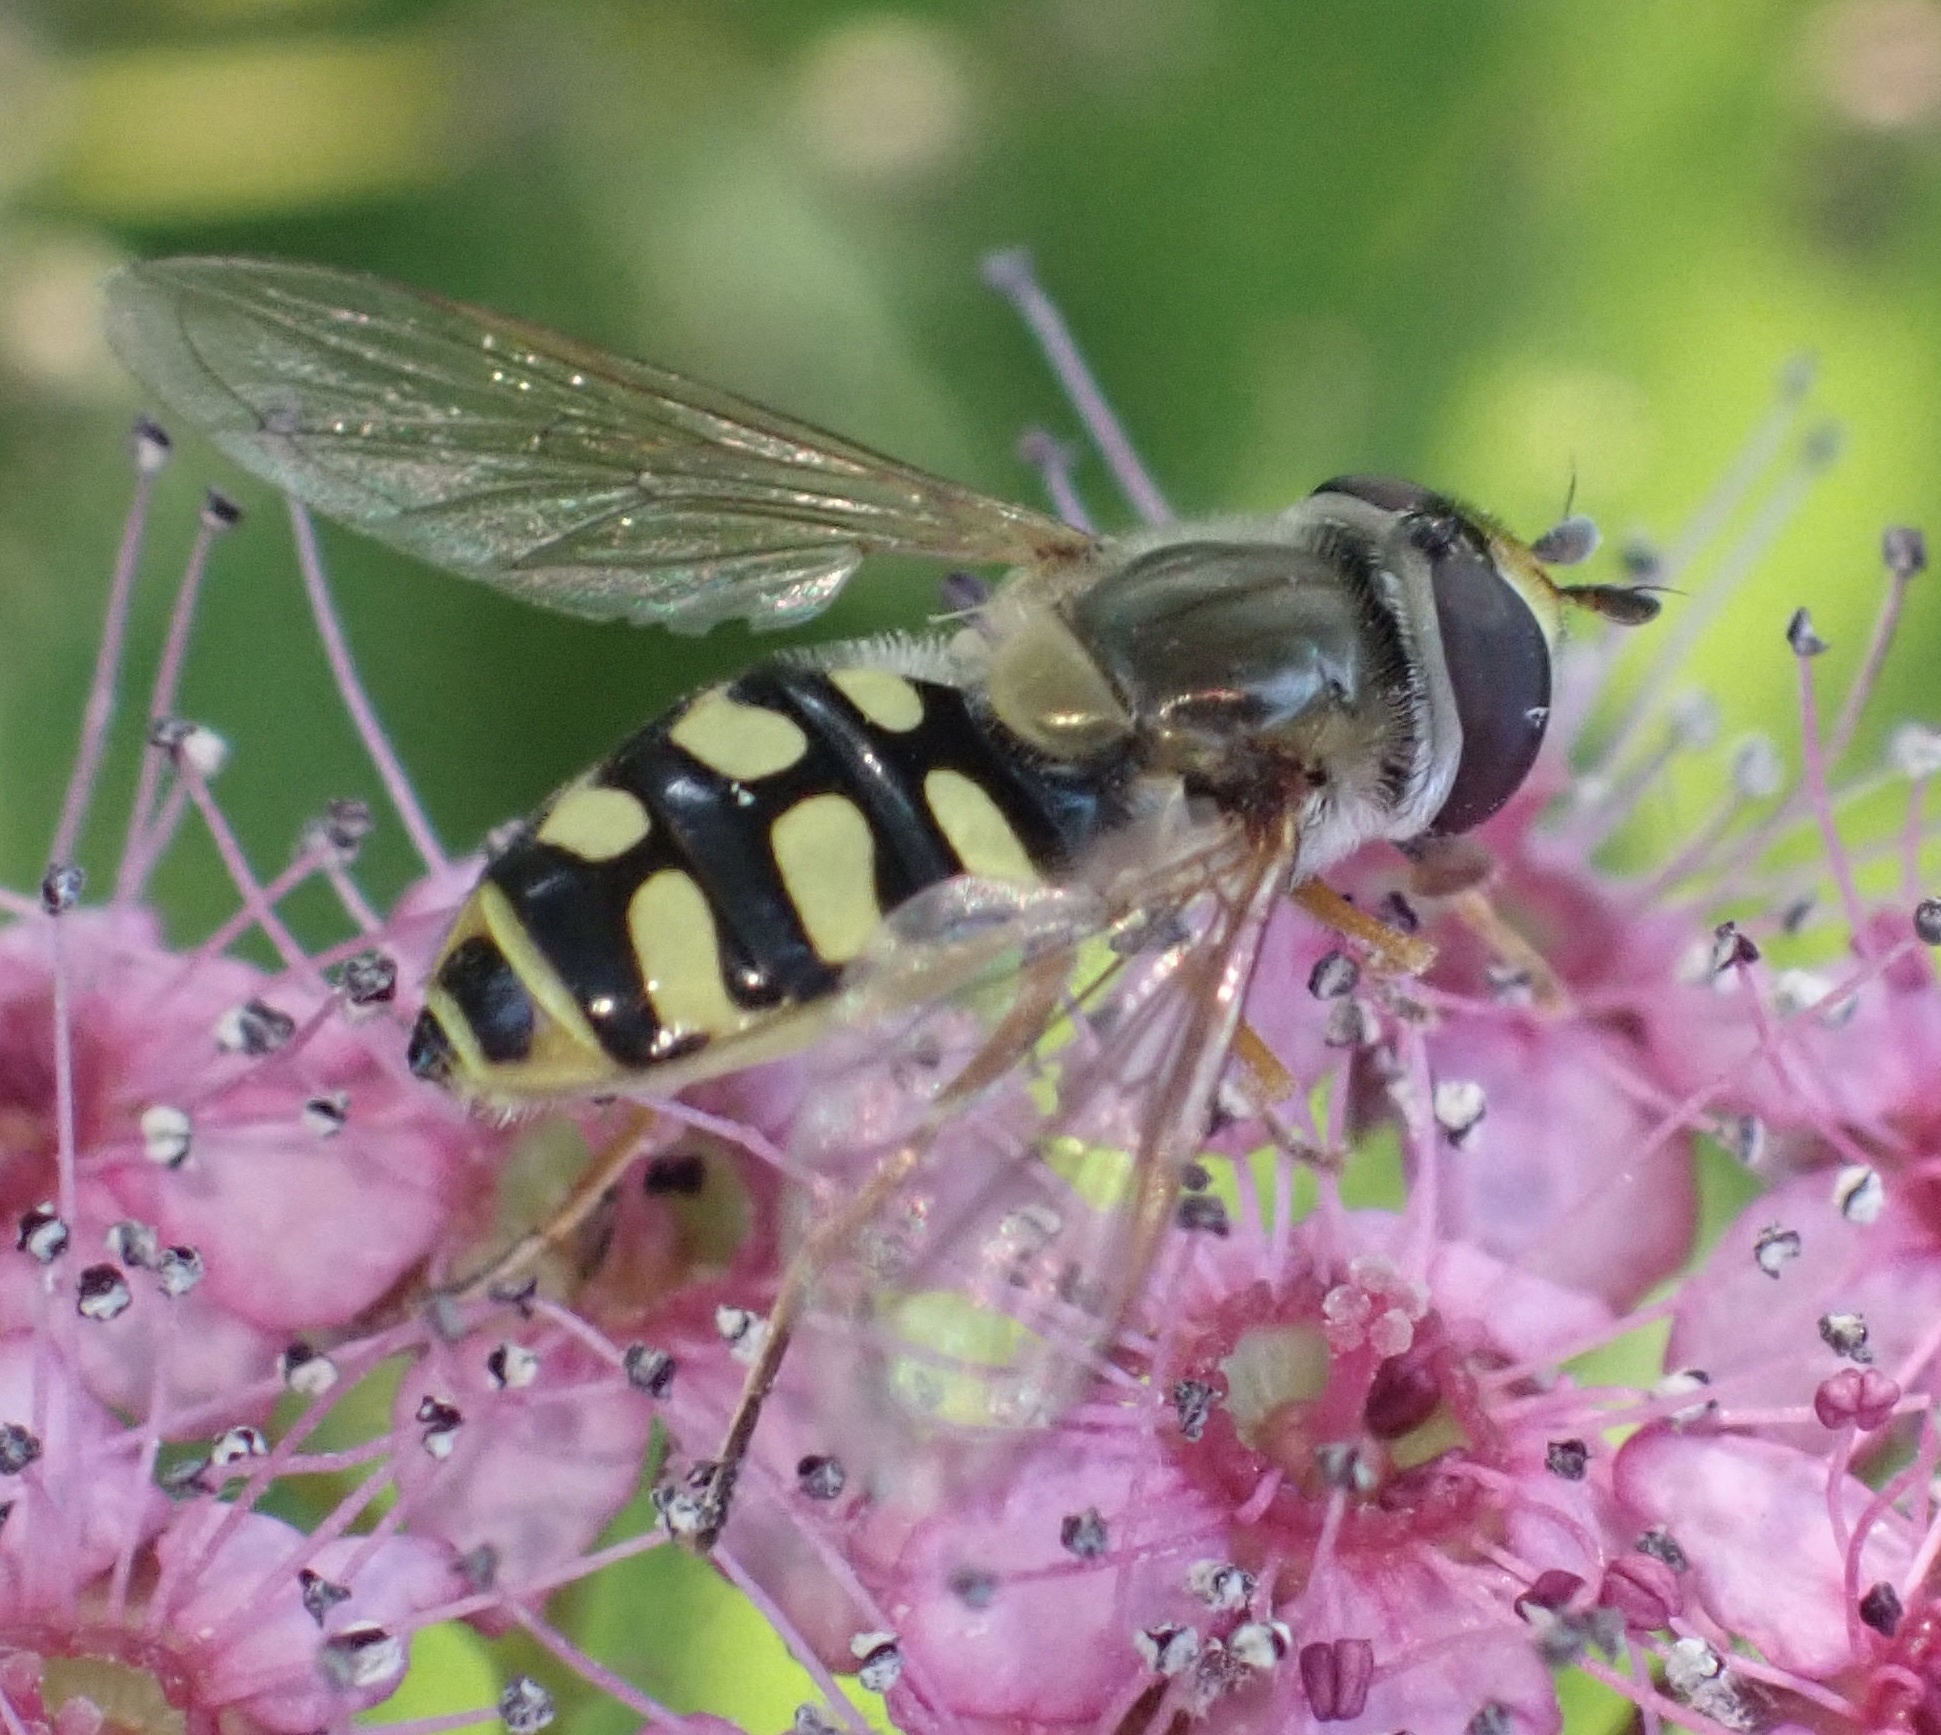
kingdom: Animalia
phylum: Arthropoda
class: Insecta
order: Diptera
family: Syrphidae
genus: Eupeodes
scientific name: Eupeodes corollae
